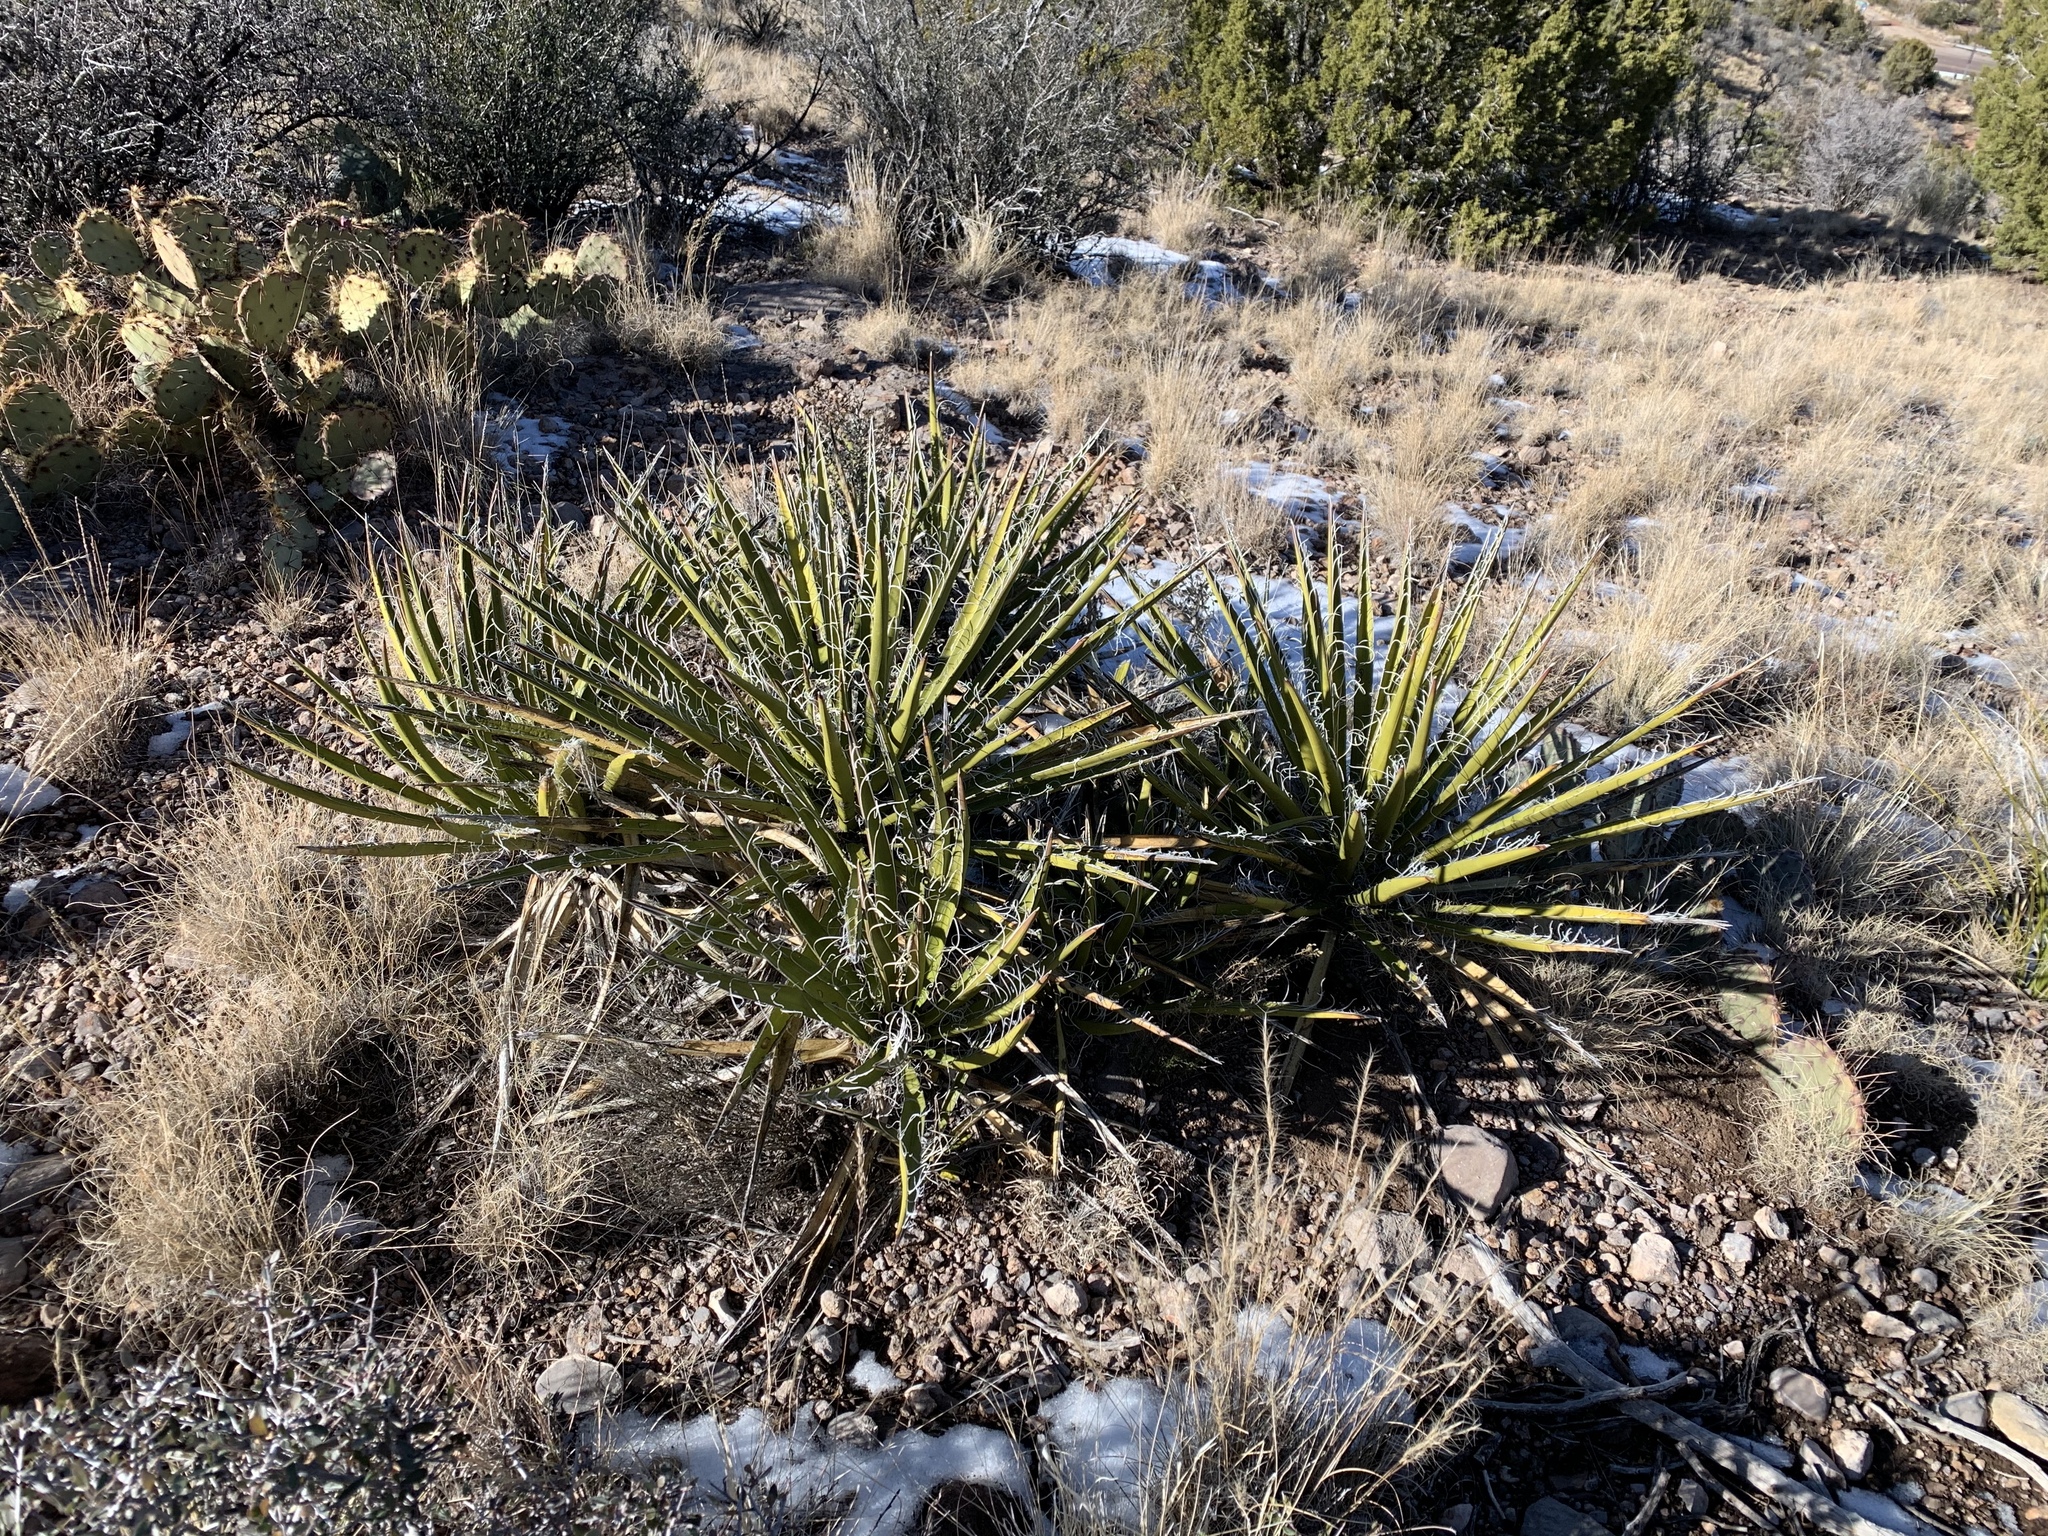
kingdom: Plantae
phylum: Tracheophyta
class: Liliopsida
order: Asparagales
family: Asparagaceae
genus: Yucca
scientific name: Yucca baccata
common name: Banana yucca
